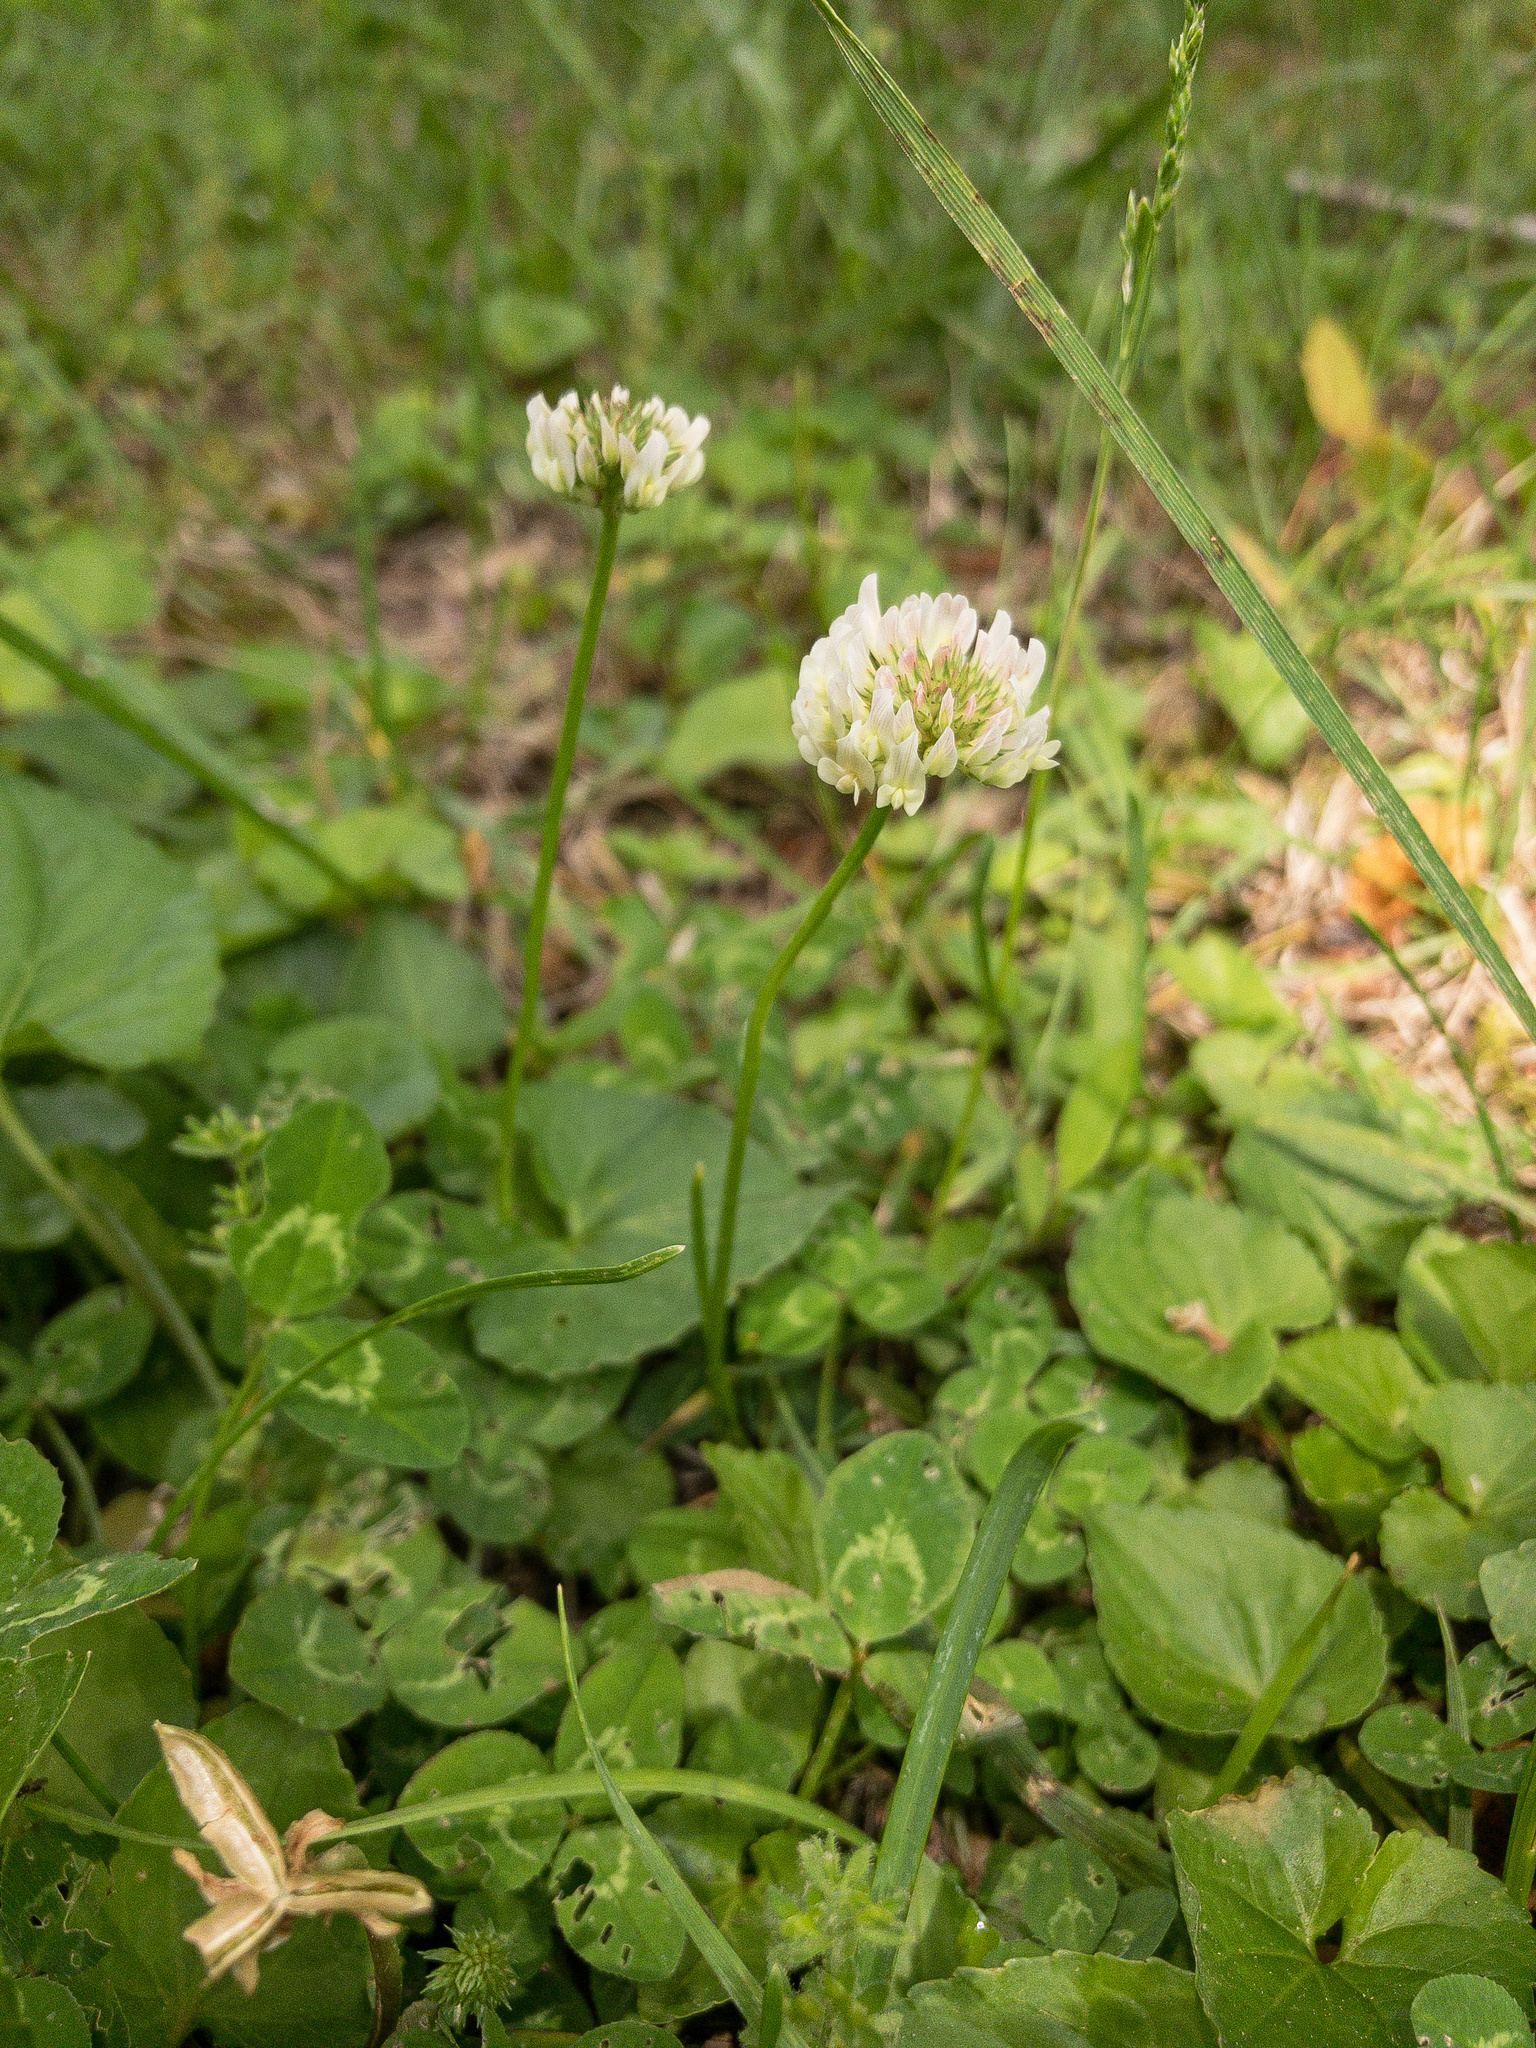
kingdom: Plantae
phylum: Tracheophyta
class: Magnoliopsida
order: Fabales
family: Fabaceae
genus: Trifolium
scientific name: Trifolium repens
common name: White clover
